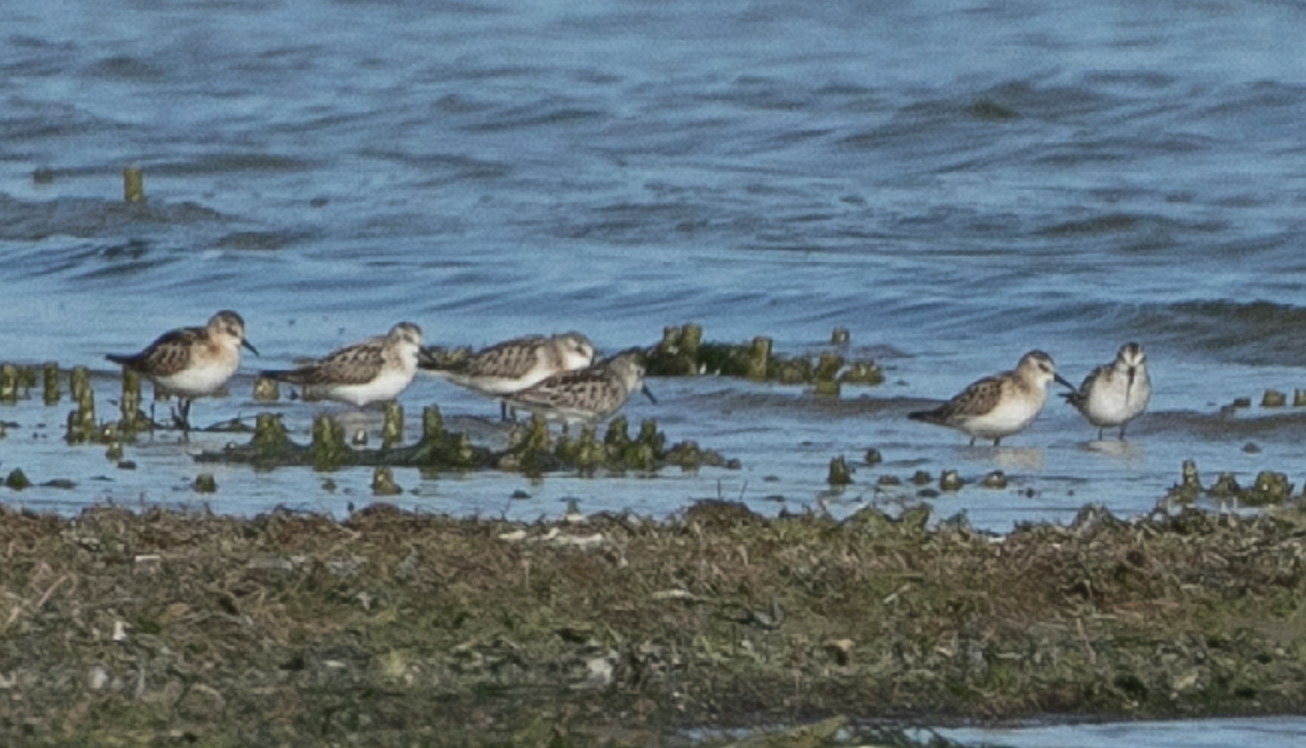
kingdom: Animalia
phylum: Chordata
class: Aves
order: Charadriiformes
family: Scolopacidae
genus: Calidris
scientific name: Calidris minuta
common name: Little stint
